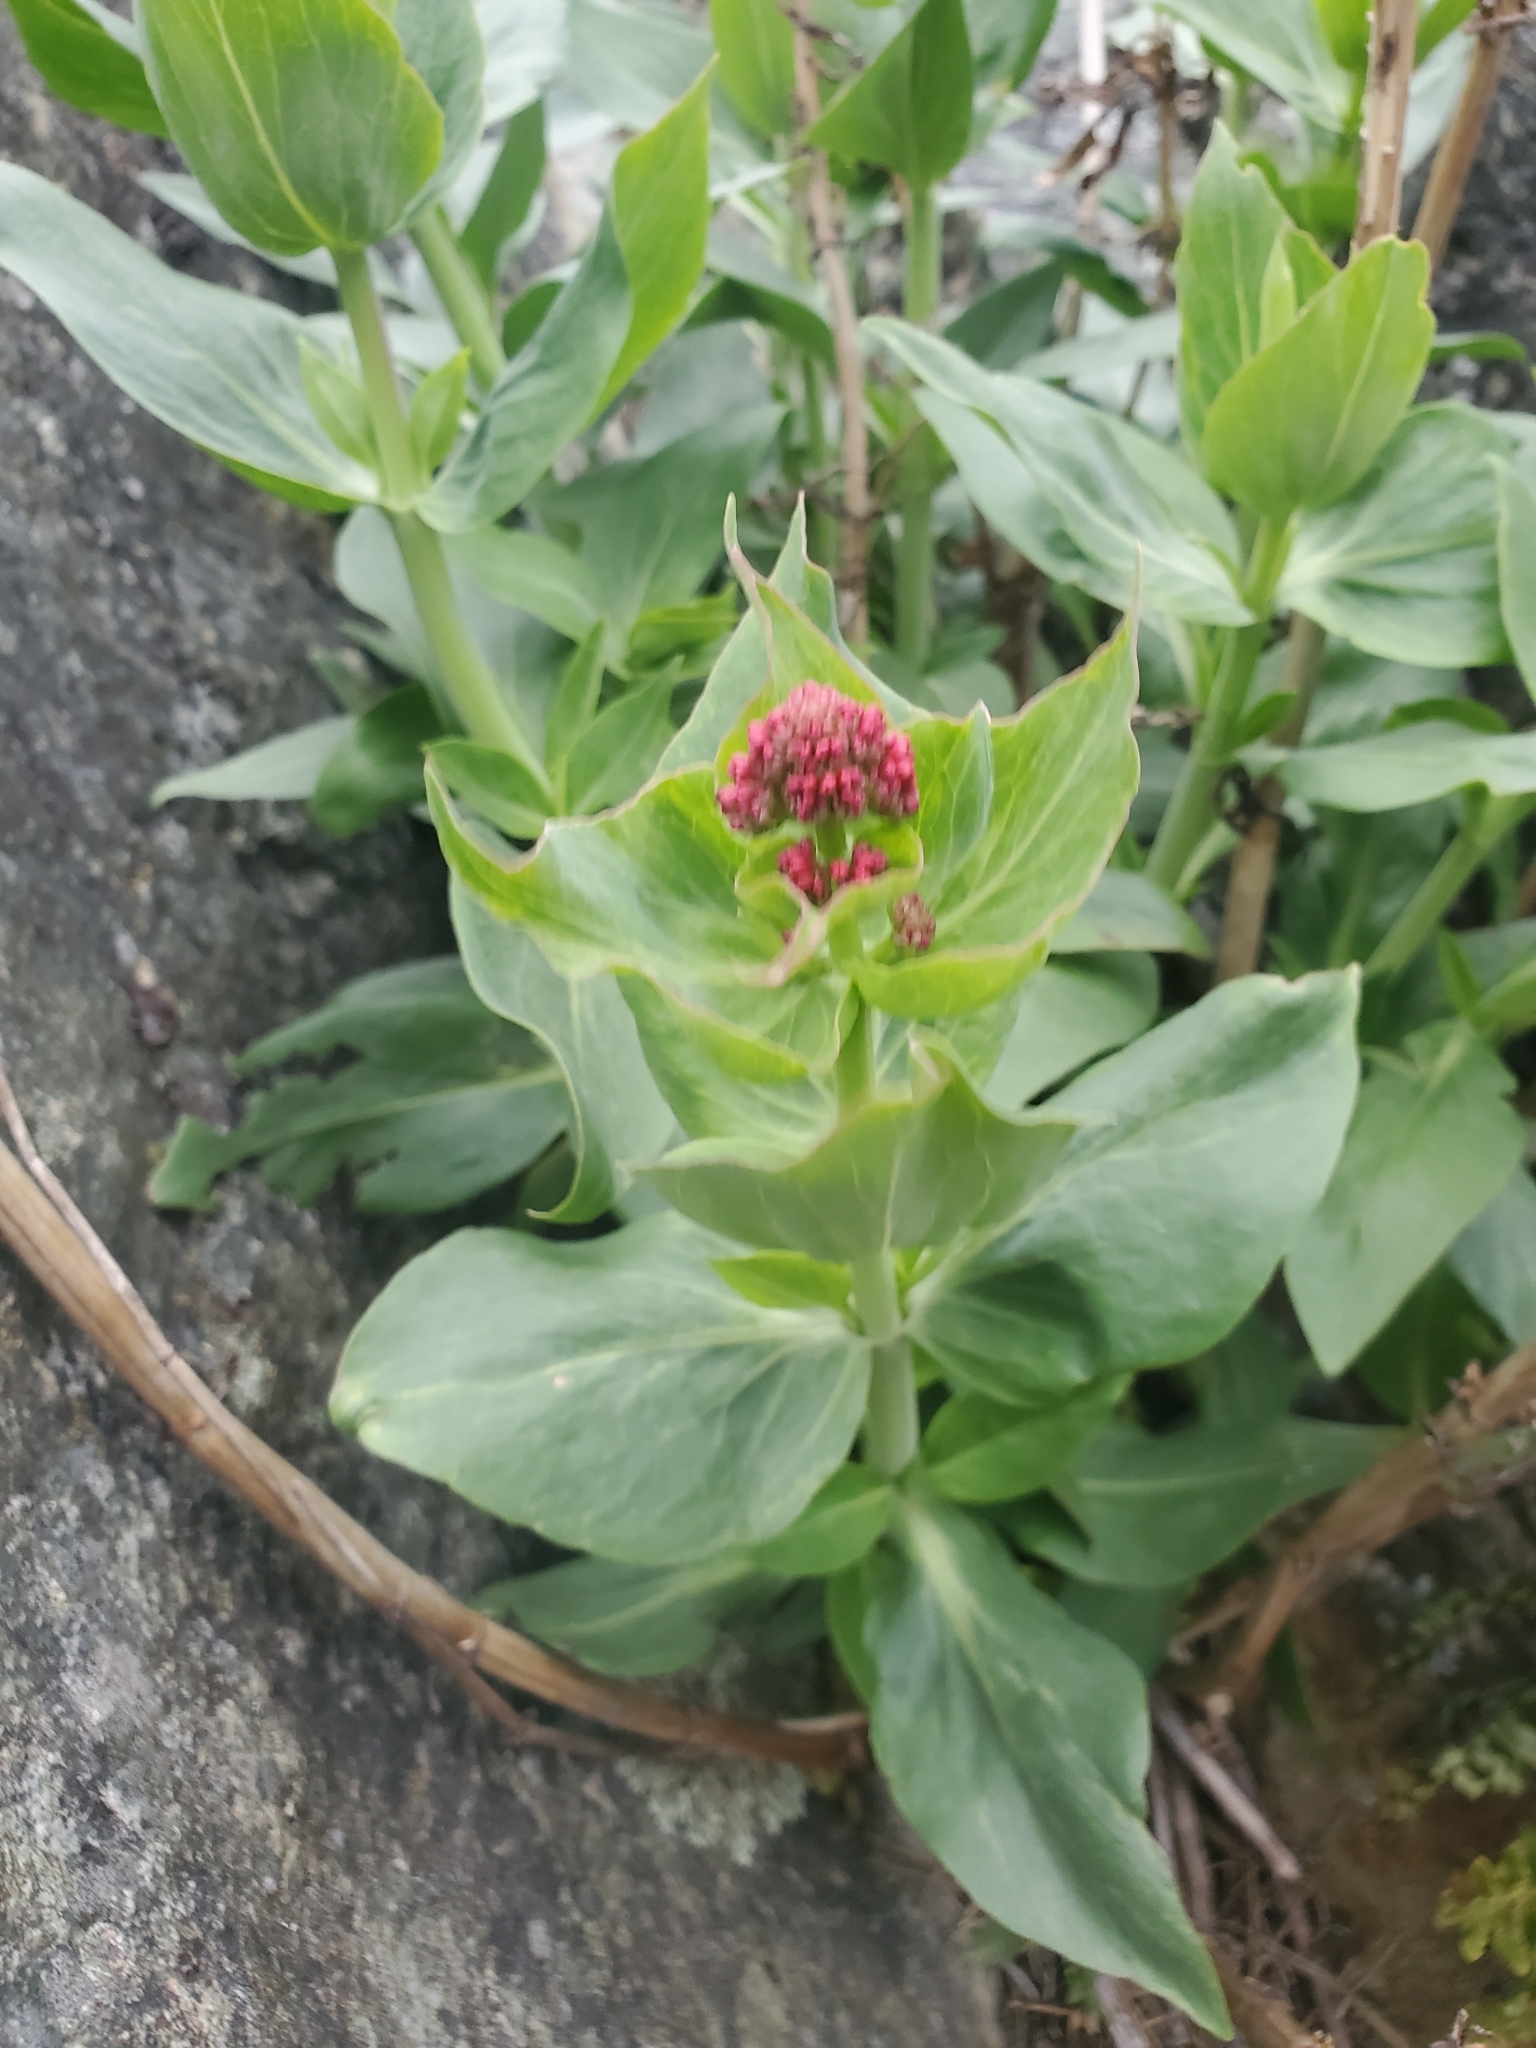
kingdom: Plantae
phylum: Tracheophyta
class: Magnoliopsida
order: Dipsacales
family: Caprifoliaceae
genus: Centranthus
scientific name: Centranthus ruber
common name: Red valerian
